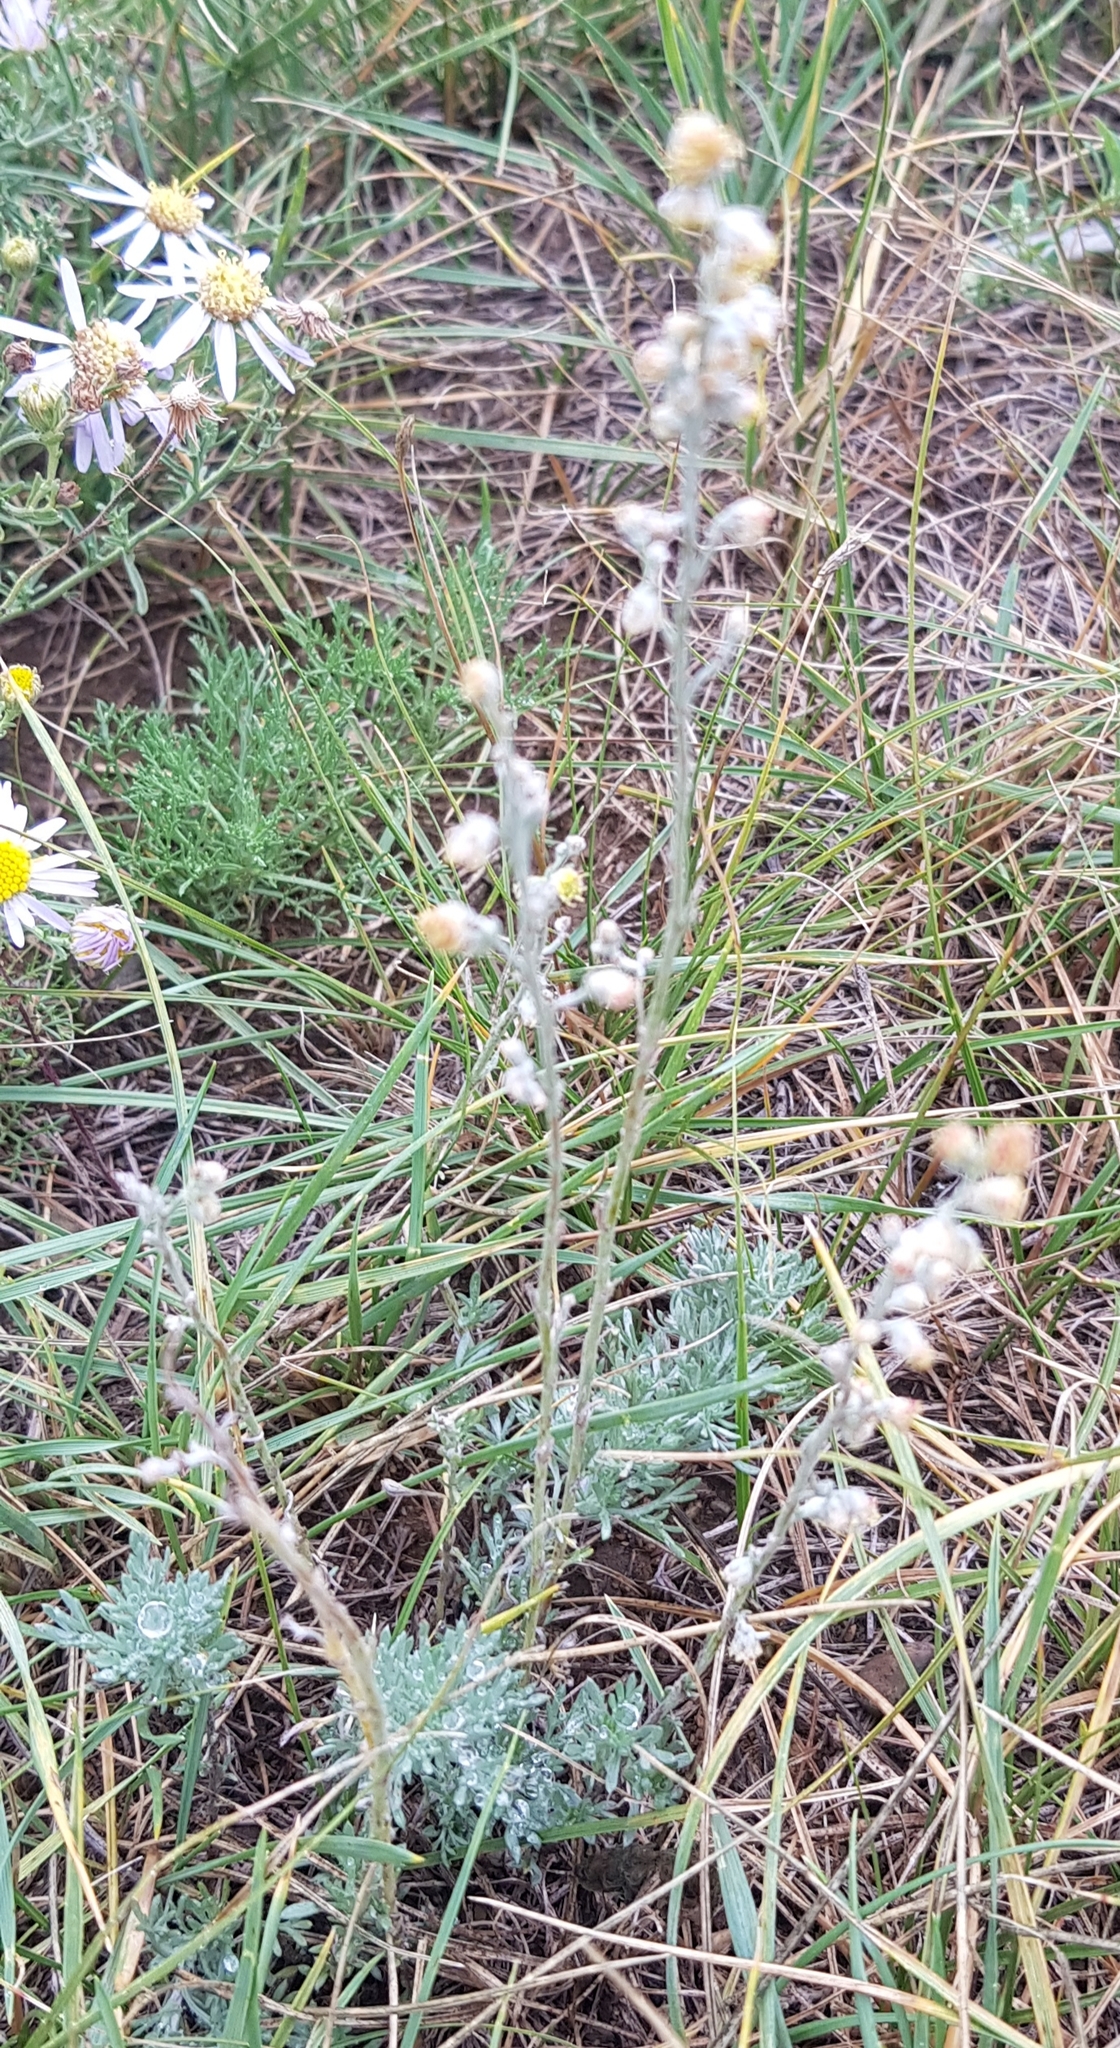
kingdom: Plantae
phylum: Tracheophyta
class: Magnoliopsida
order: Asterales
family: Asteraceae
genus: Artemisia
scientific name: Artemisia frigida
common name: Prairie sagewort
